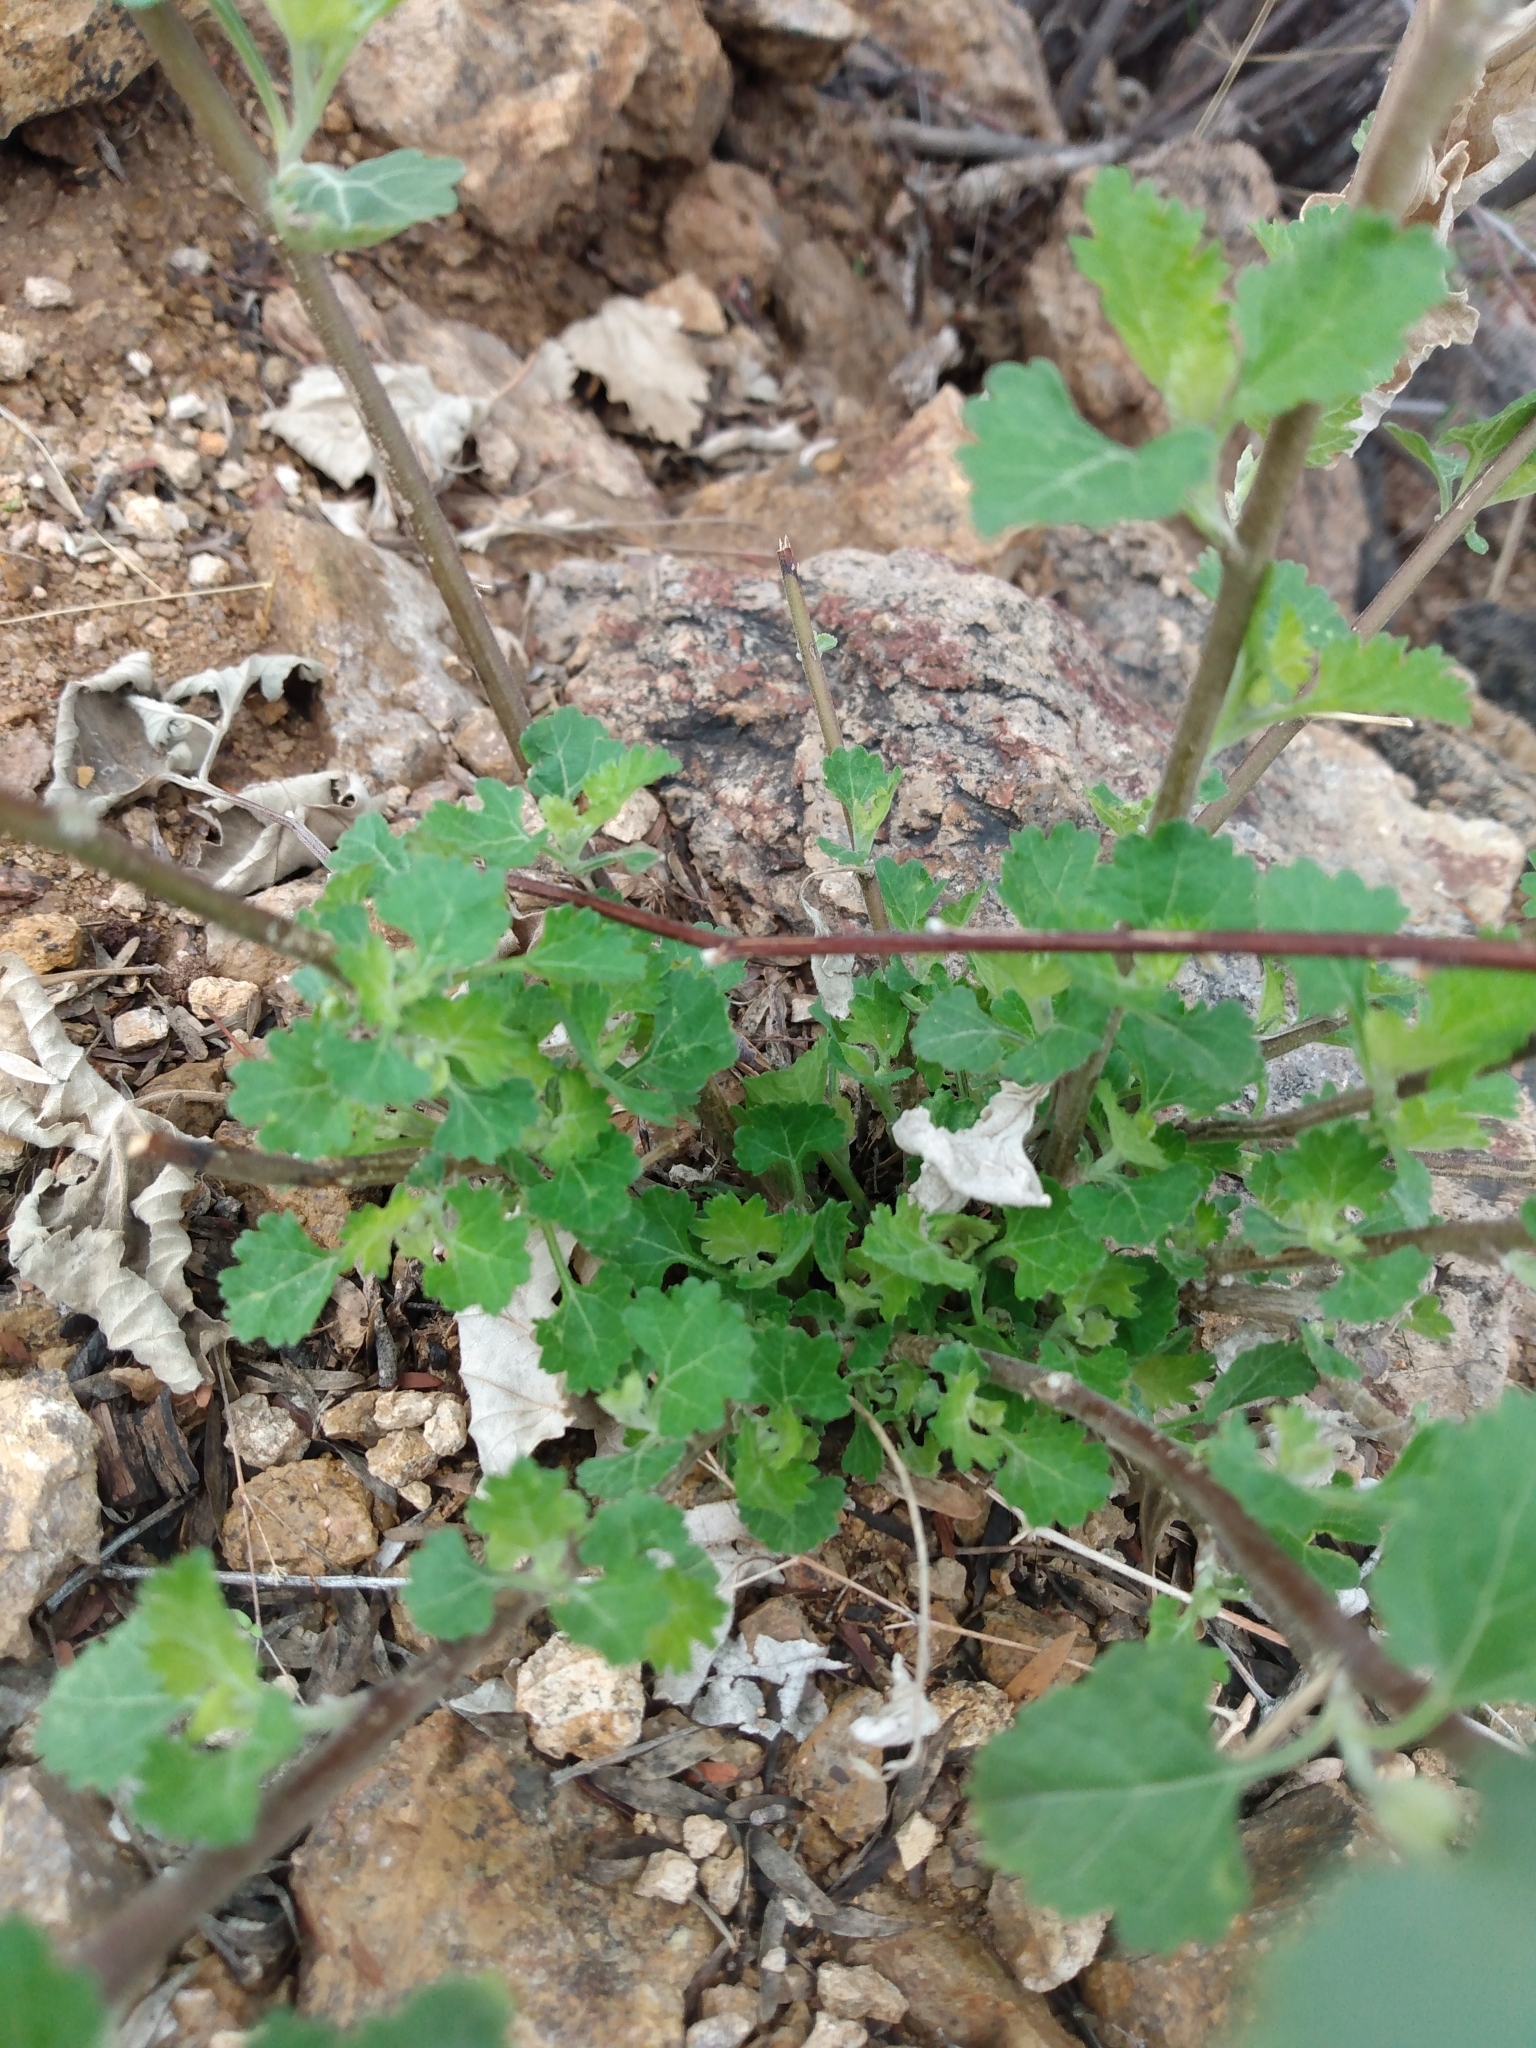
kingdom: Plantae
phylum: Tracheophyta
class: Magnoliopsida
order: Asterales
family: Asteraceae
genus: Ambrosia
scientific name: Ambrosia cordifolia
